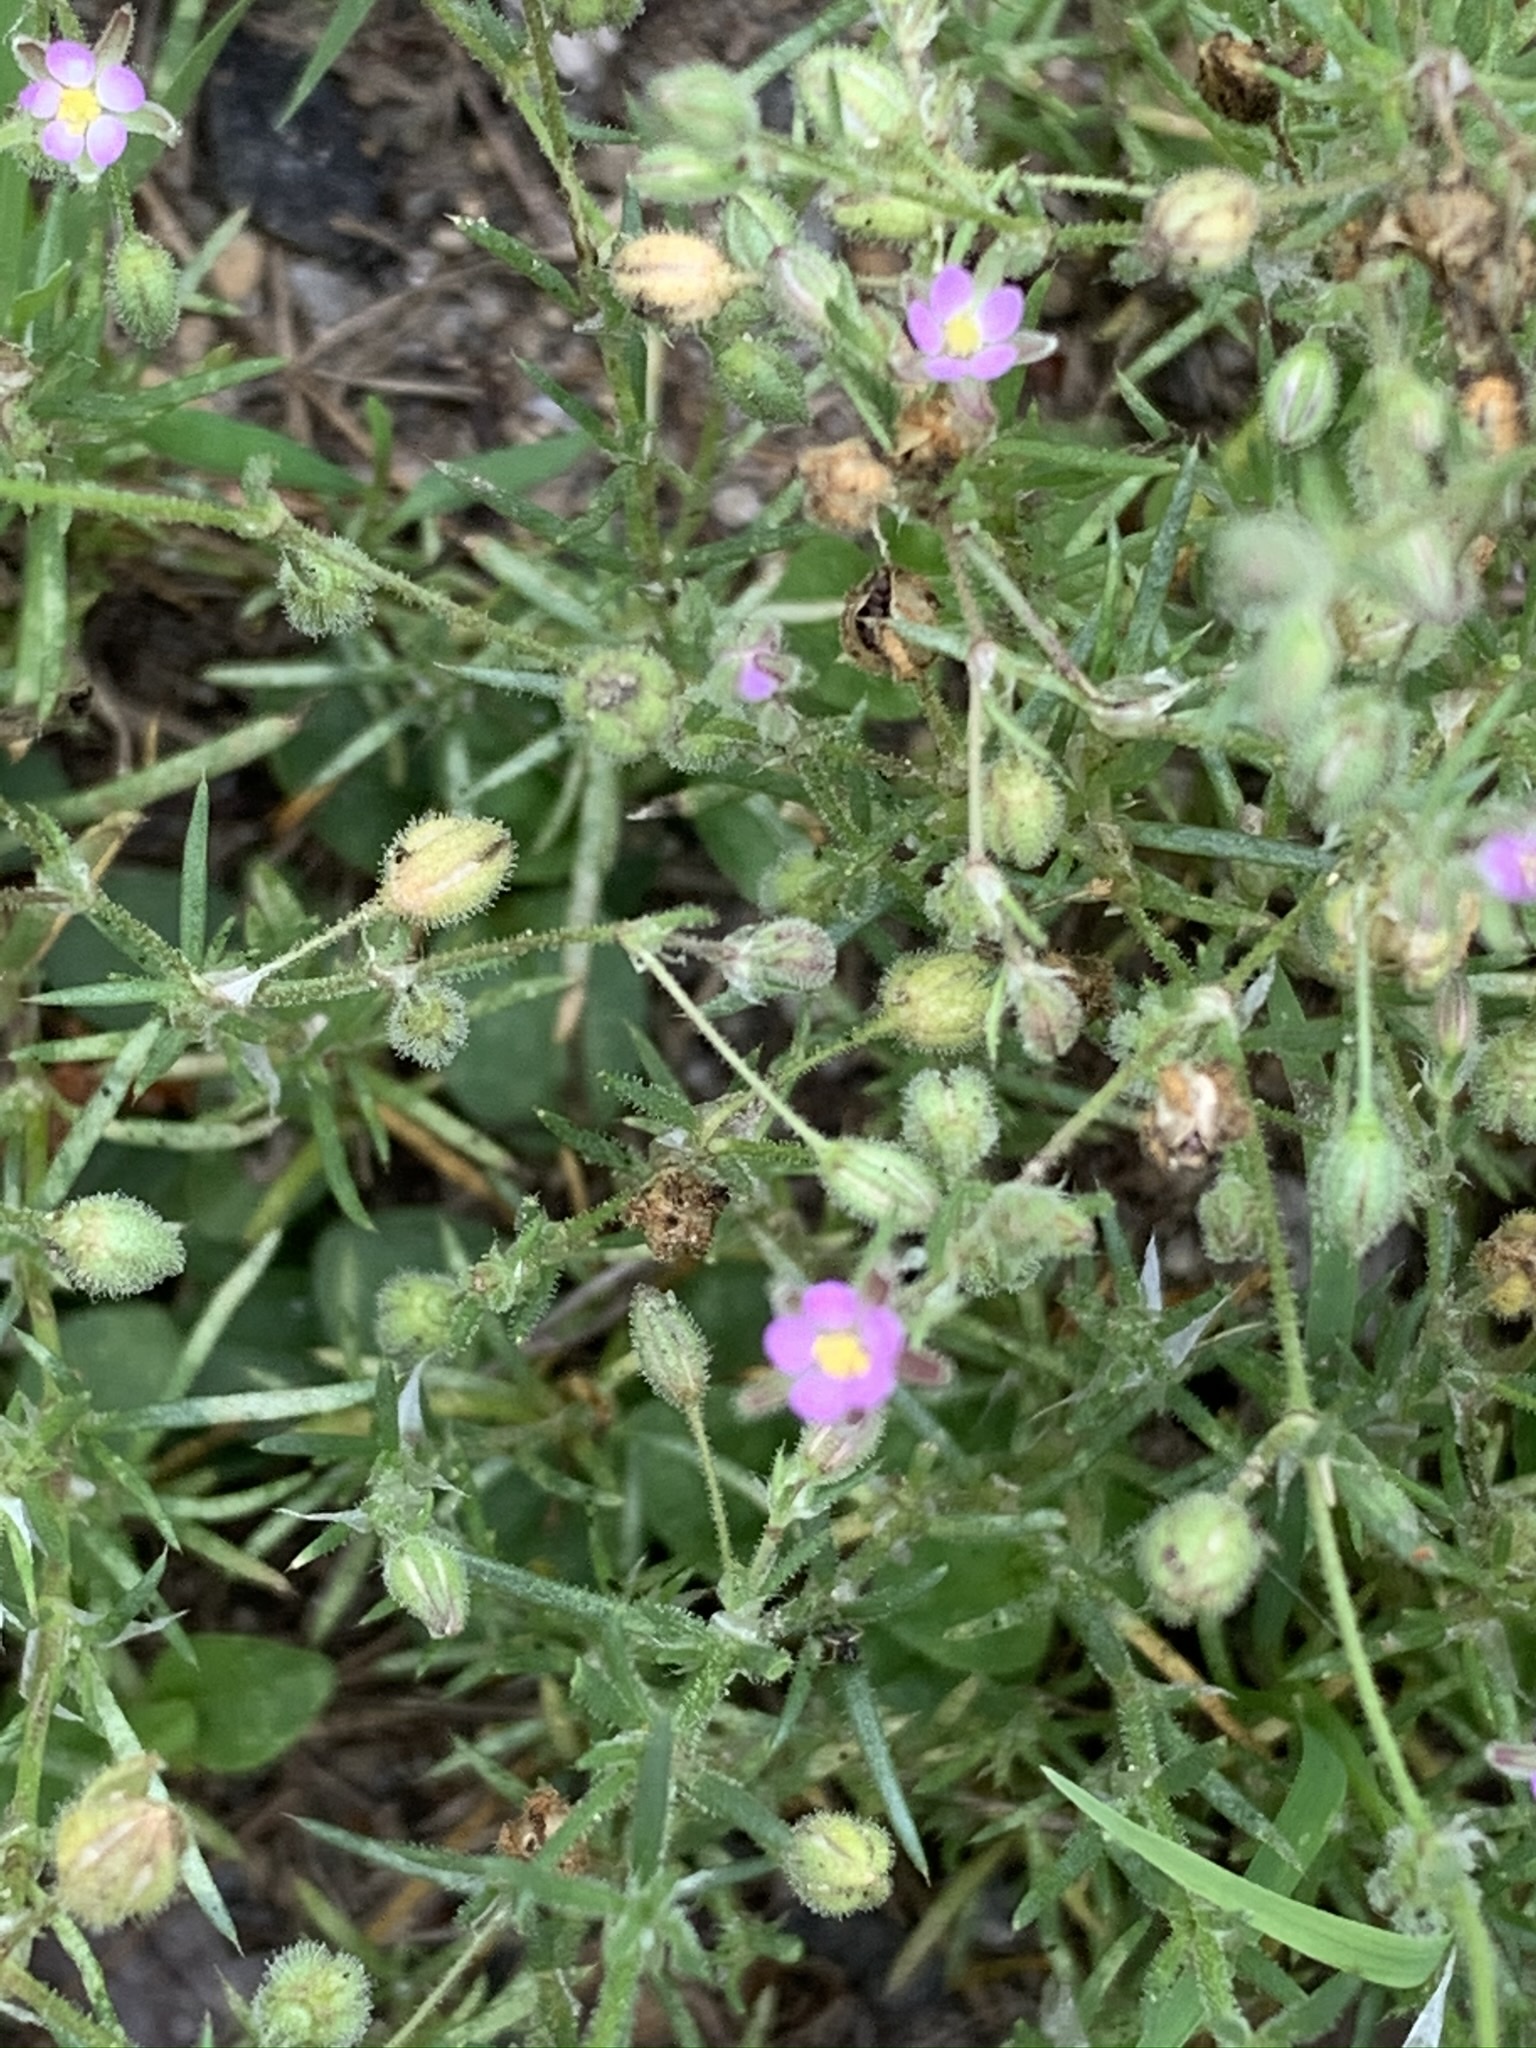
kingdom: Plantae
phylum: Tracheophyta
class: Magnoliopsida
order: Caryophyllales
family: Caryophyllaceae
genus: Spergularia
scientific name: Spergularia rubra
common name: Red sand-spurrey
